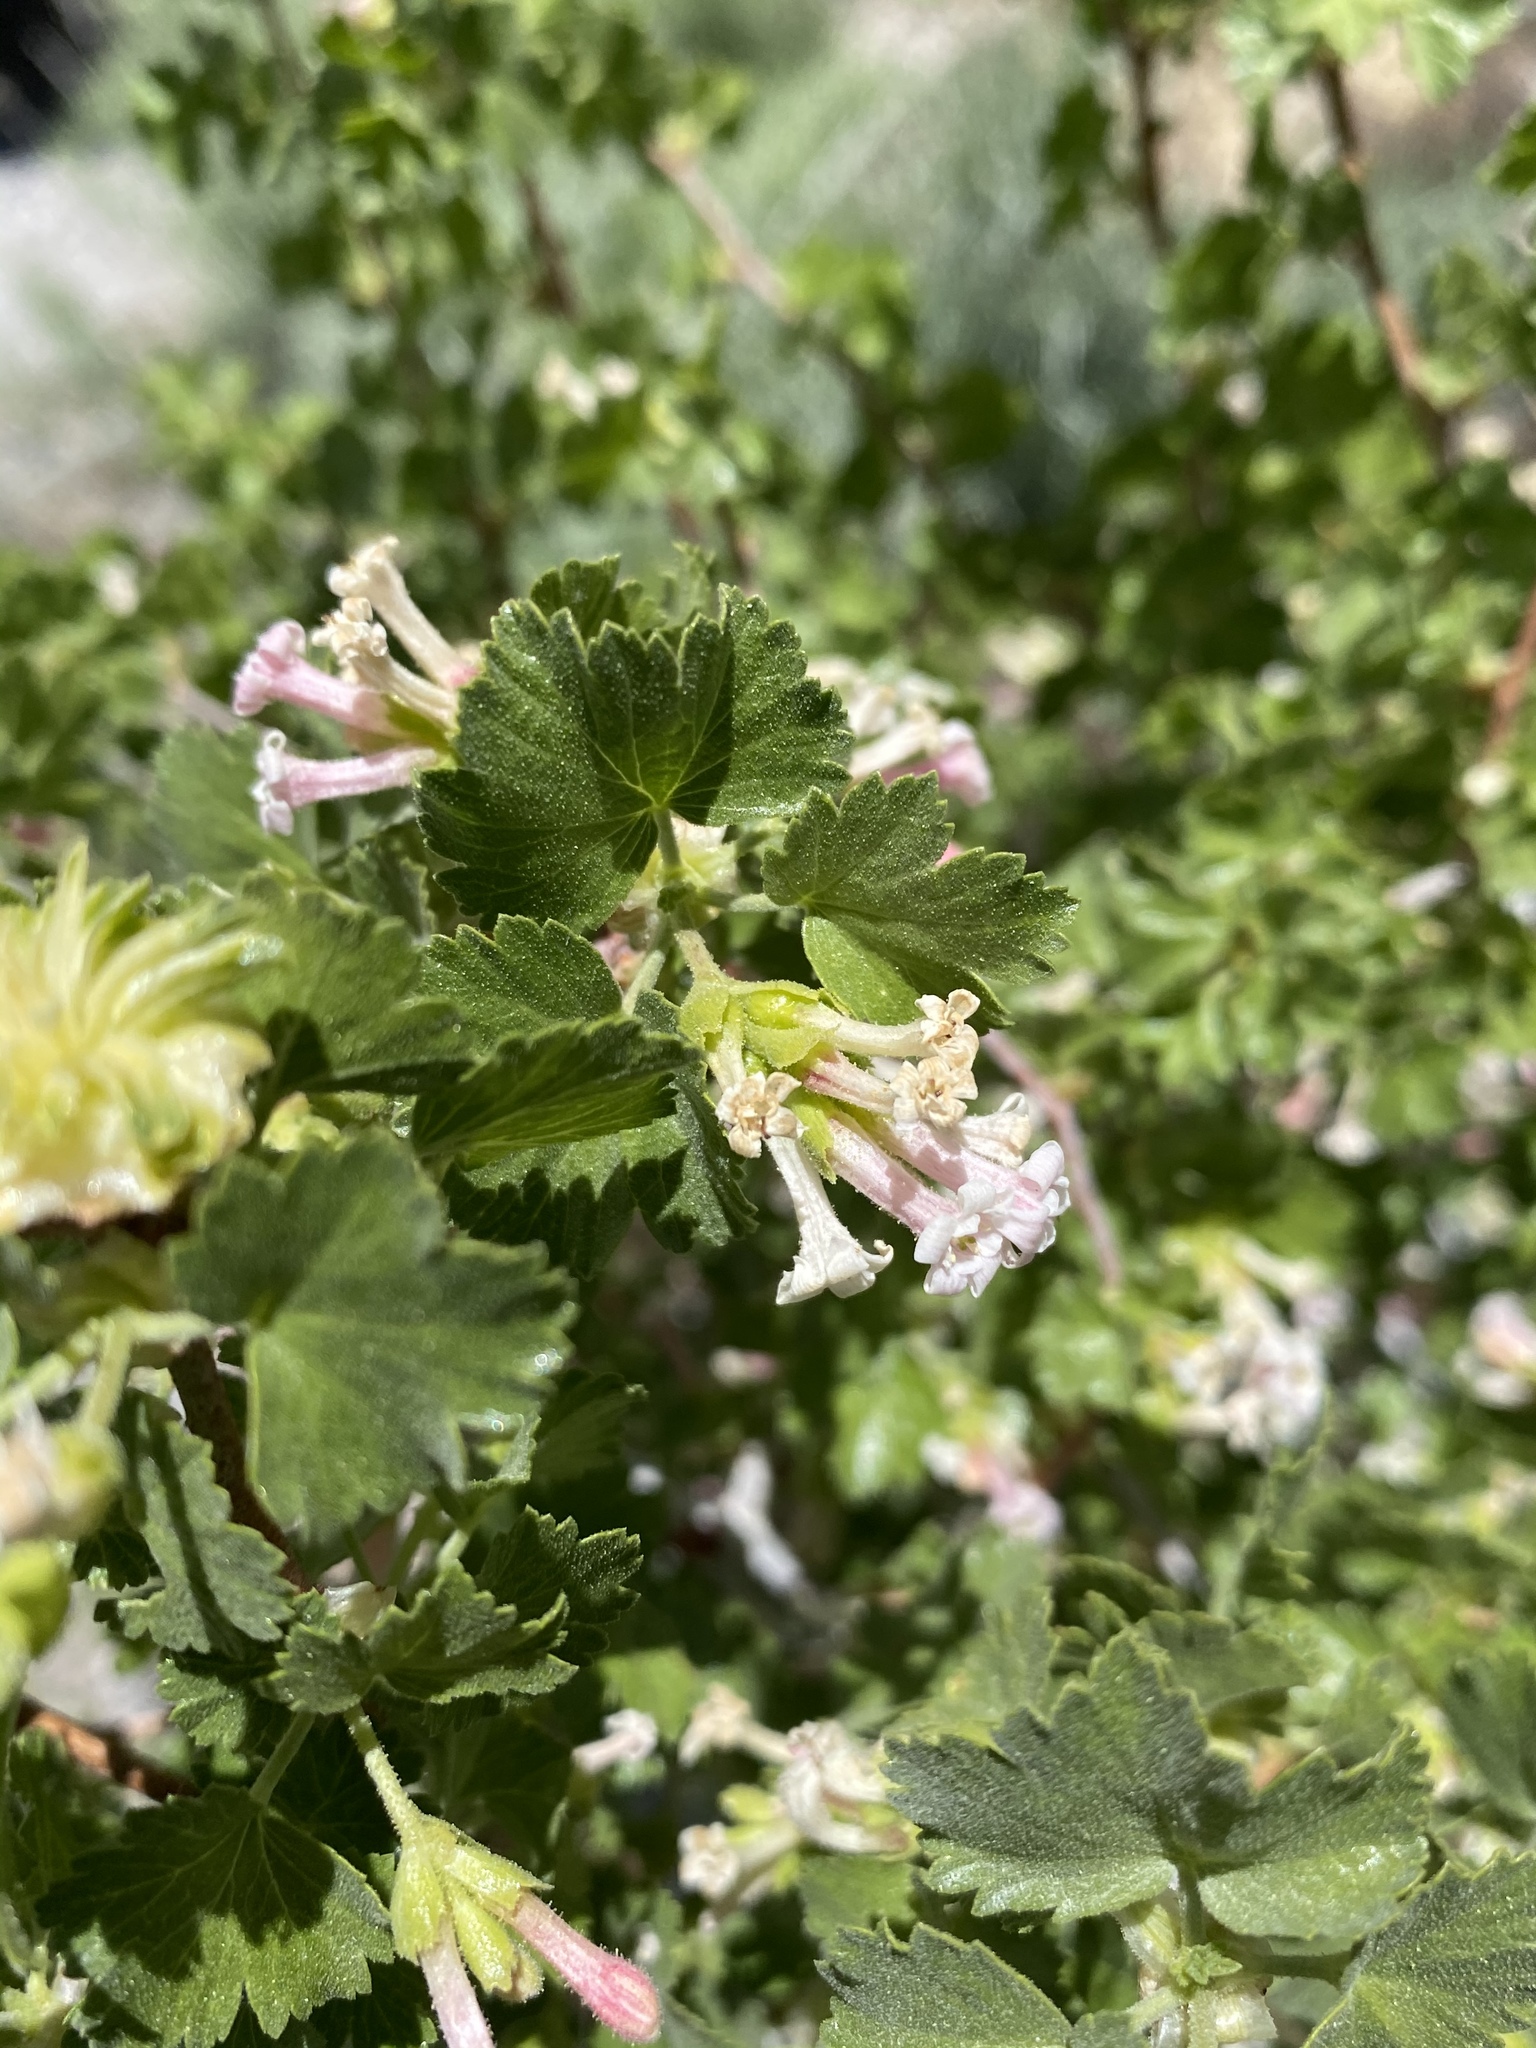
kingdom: Plantae
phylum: Tracheophyta
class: Magnoliopsida
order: Saxifragales
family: Grossulariaceae
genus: Ribes
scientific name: Ribes cereum
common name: Wax currant
